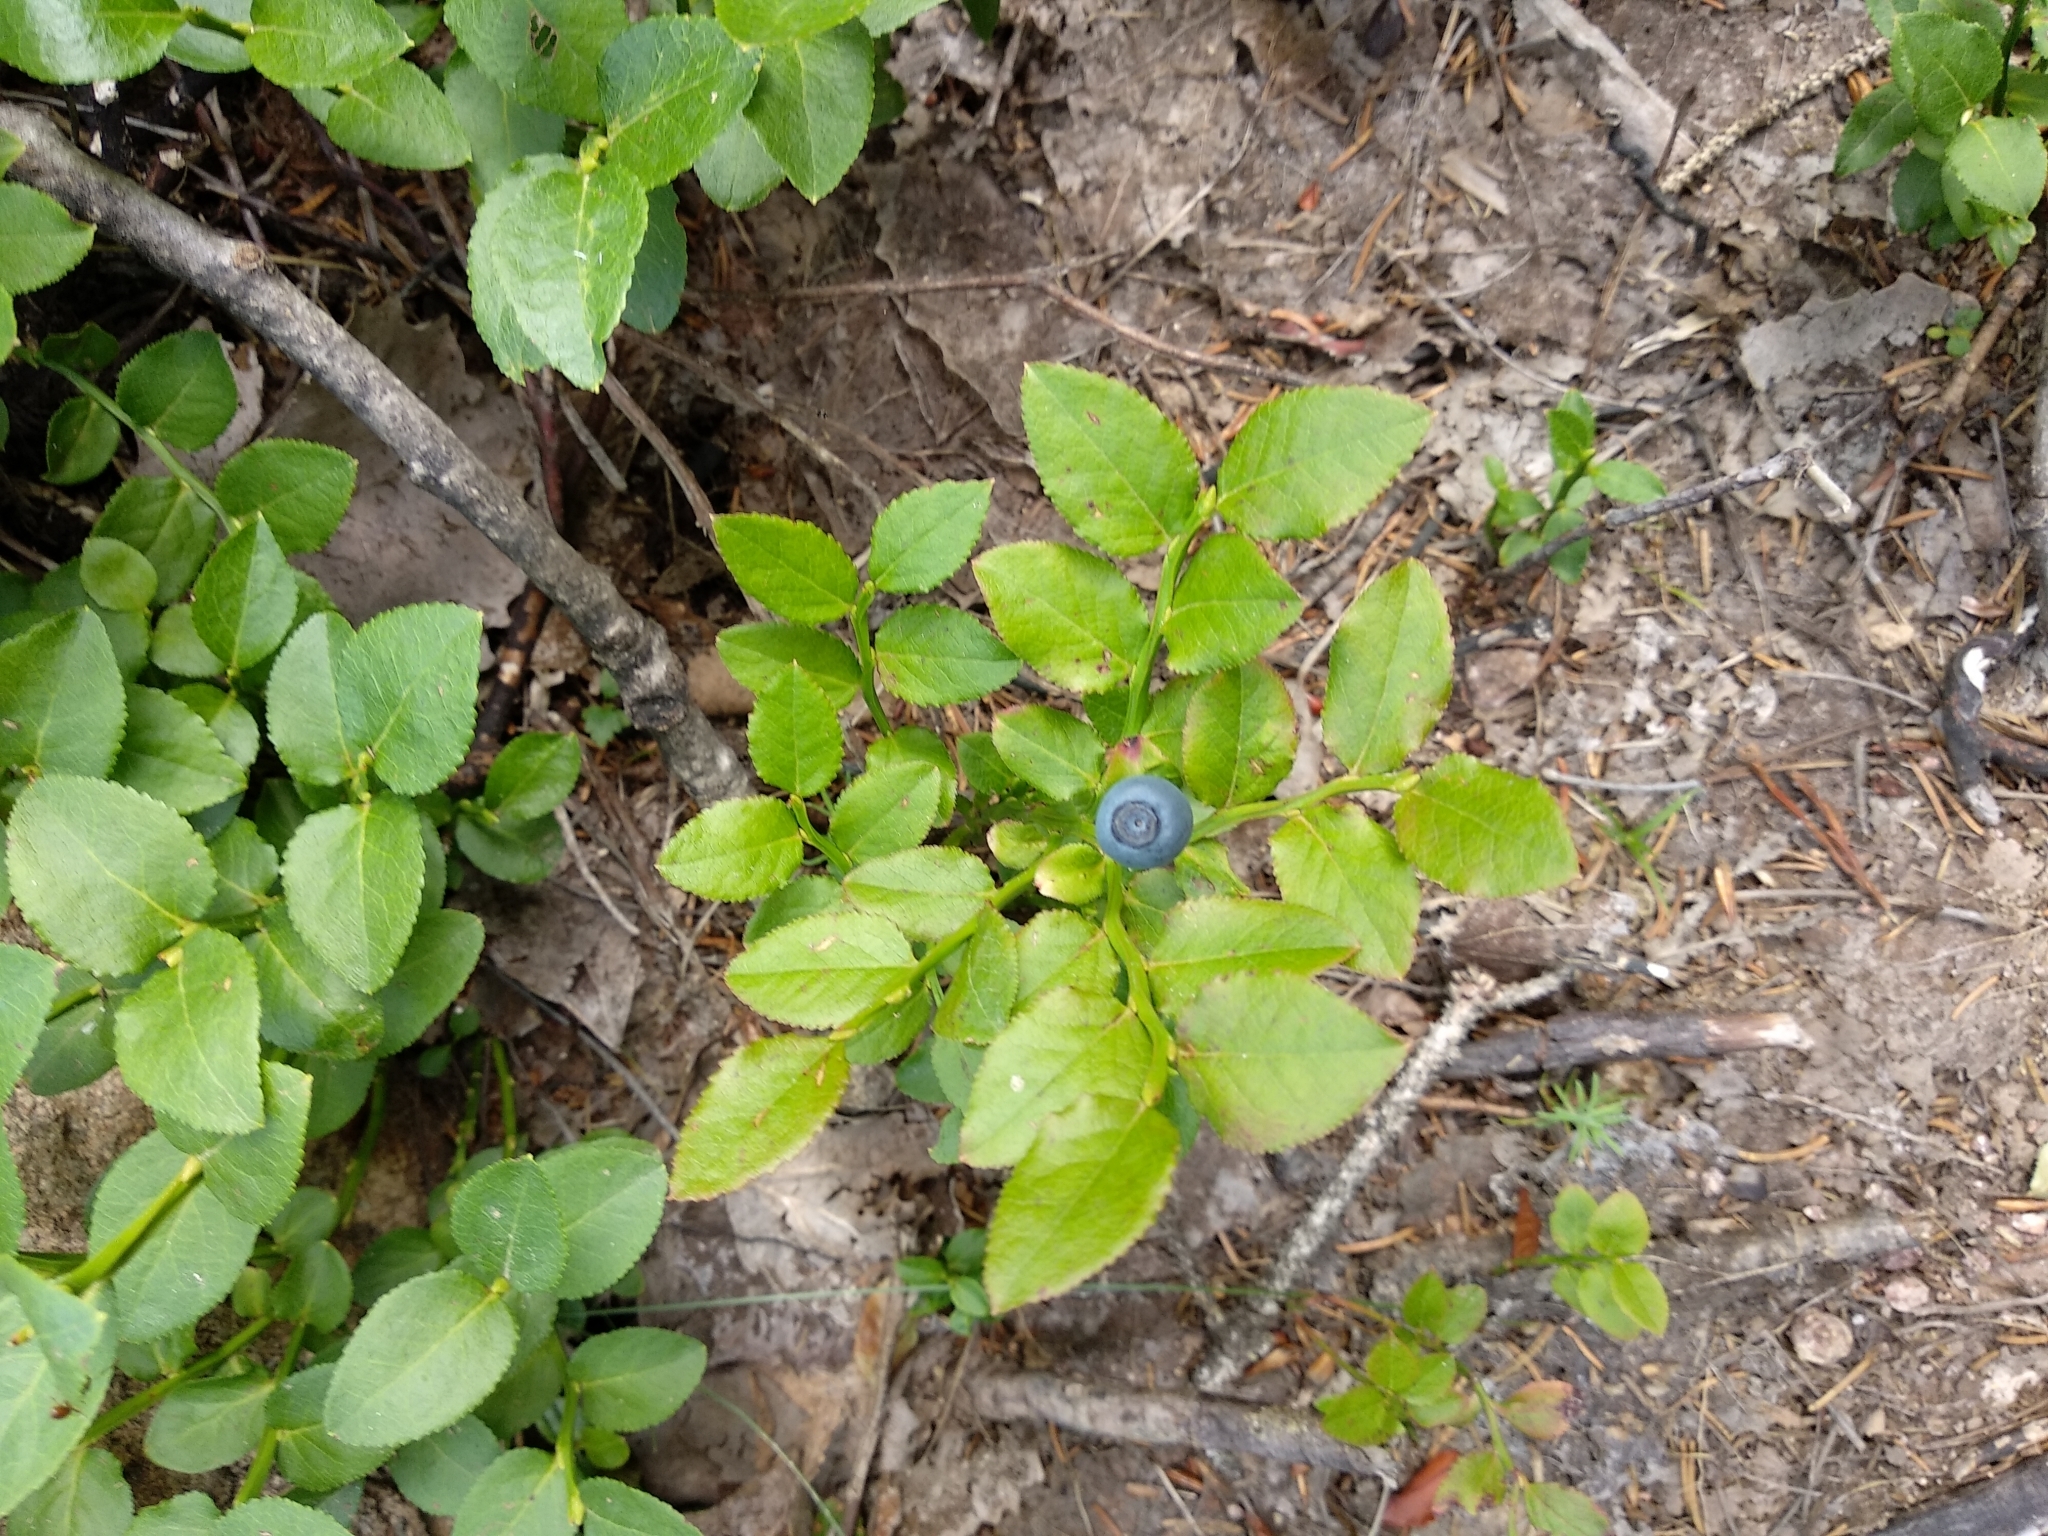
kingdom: Plantae
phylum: Tracheophyta
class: Magnoliopsida
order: Ericales
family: Ericaceae
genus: Vaccinium
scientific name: Vaccinium myrtillus
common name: Bilberry
